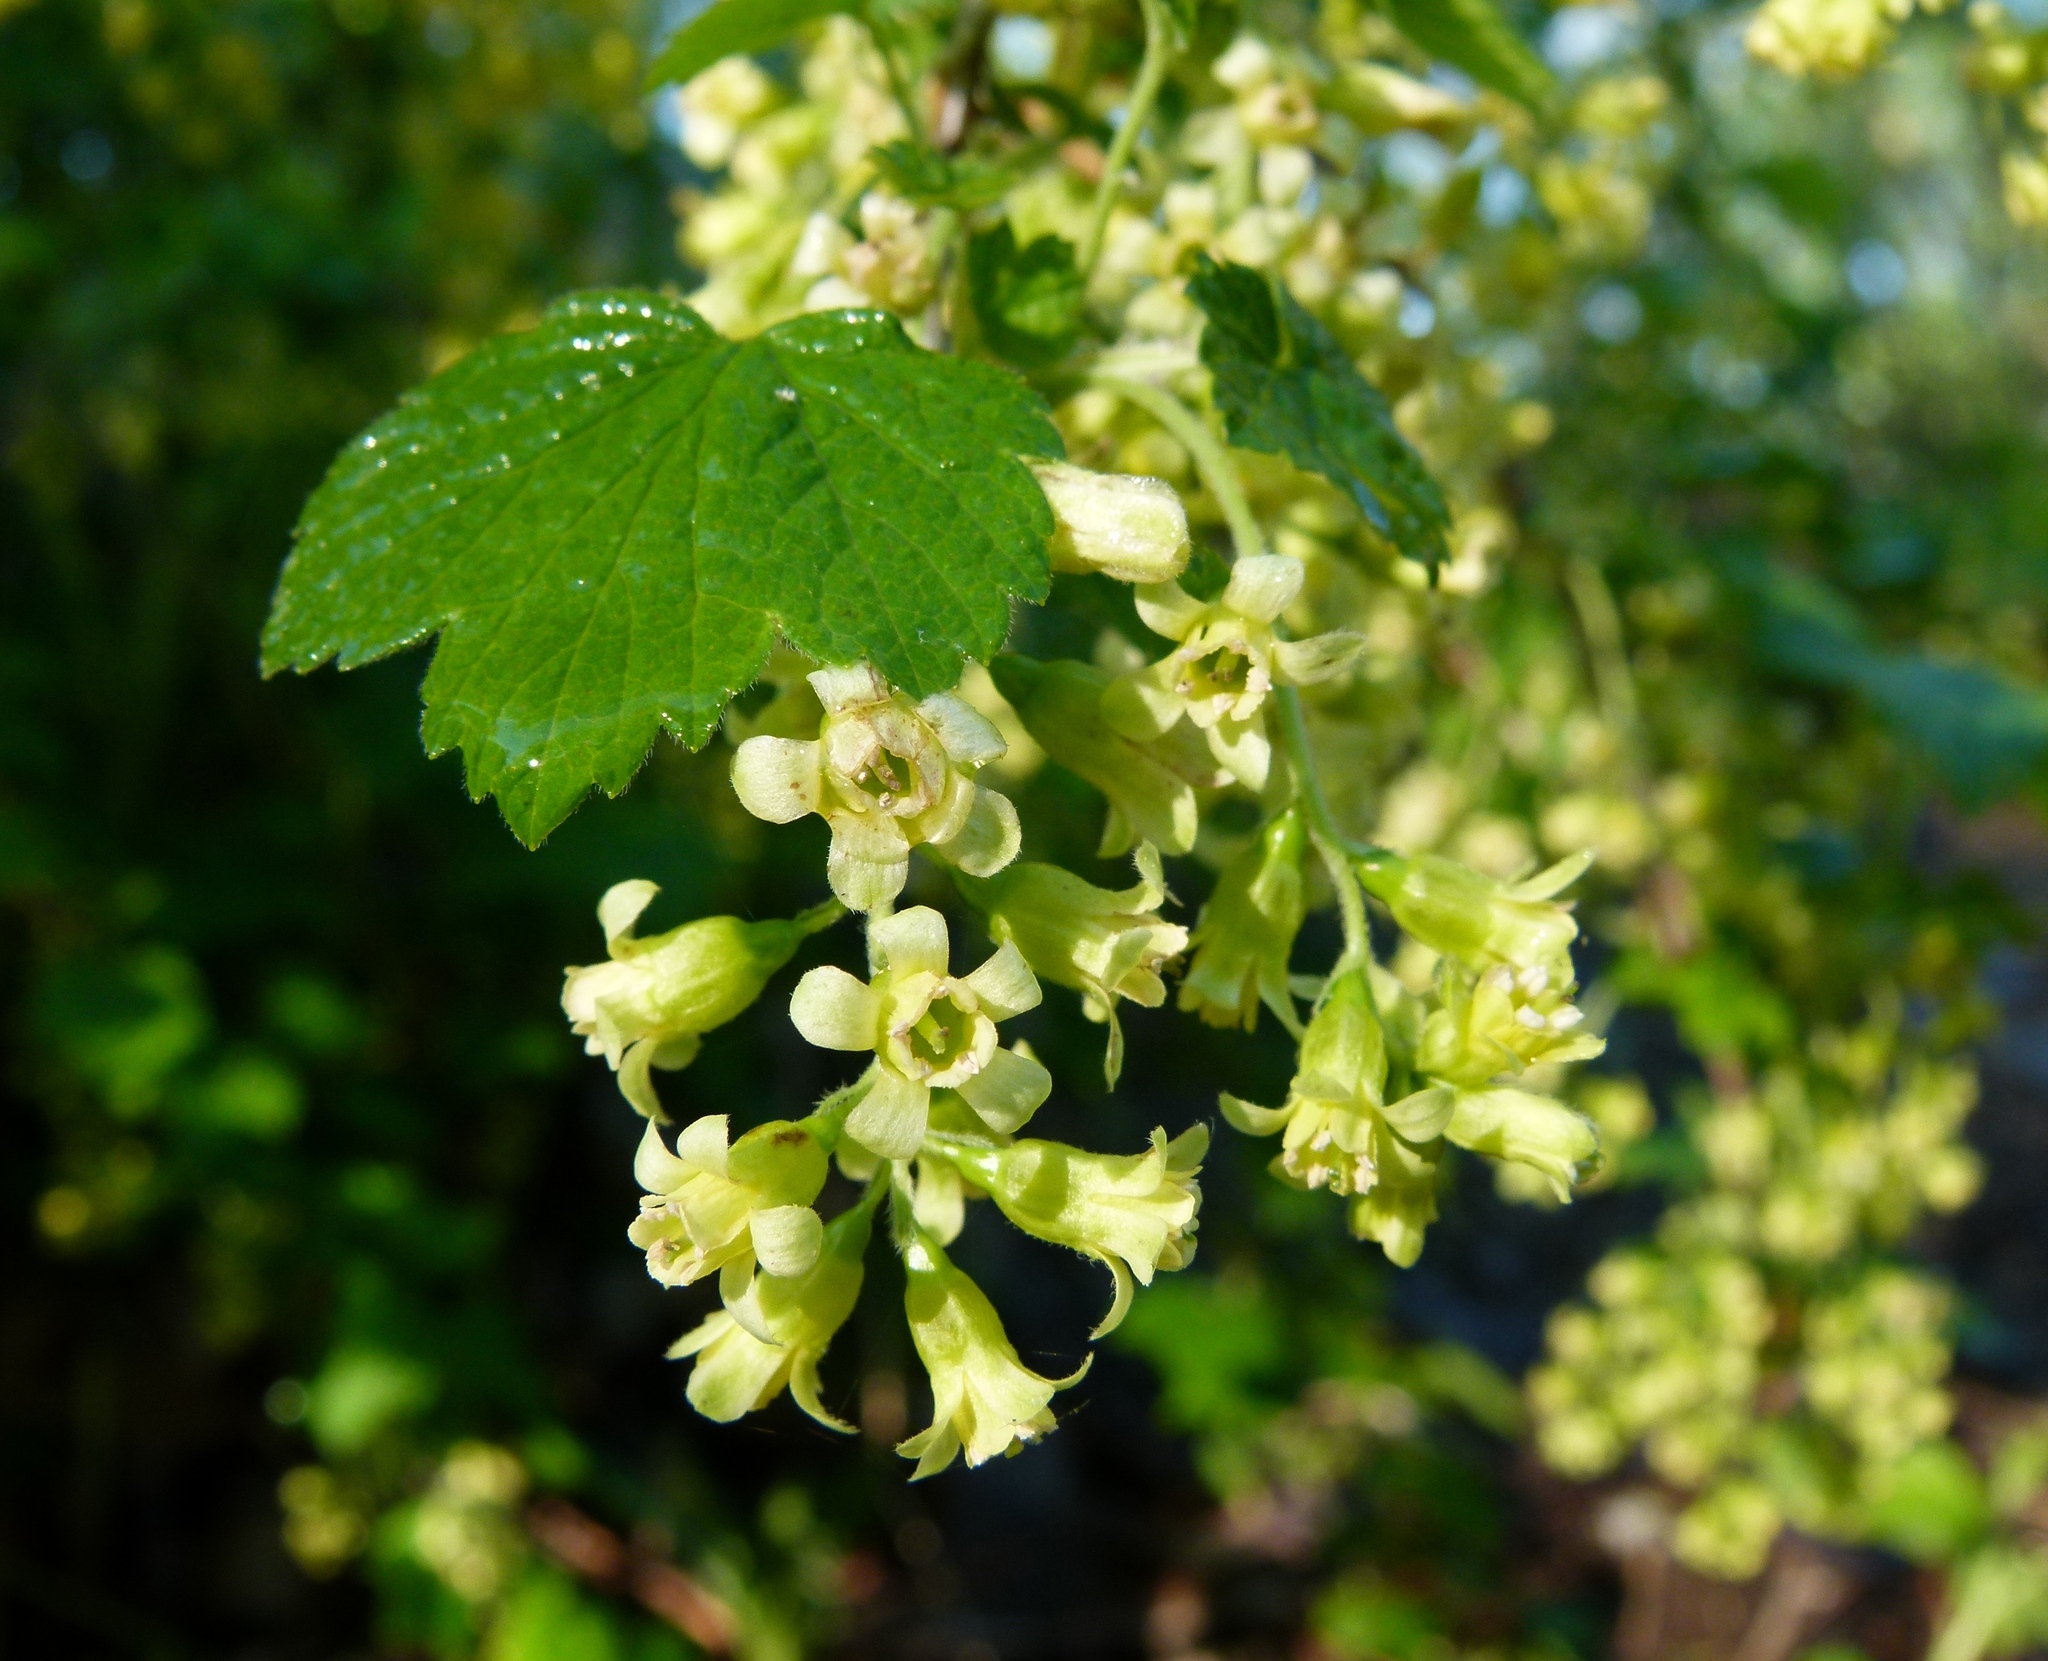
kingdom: Plantae
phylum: Tracheophyta
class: Magnoliopsida
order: Saxifragales
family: Grossulariaceae
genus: Ribes
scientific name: Ribes americanum
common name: American black currant
